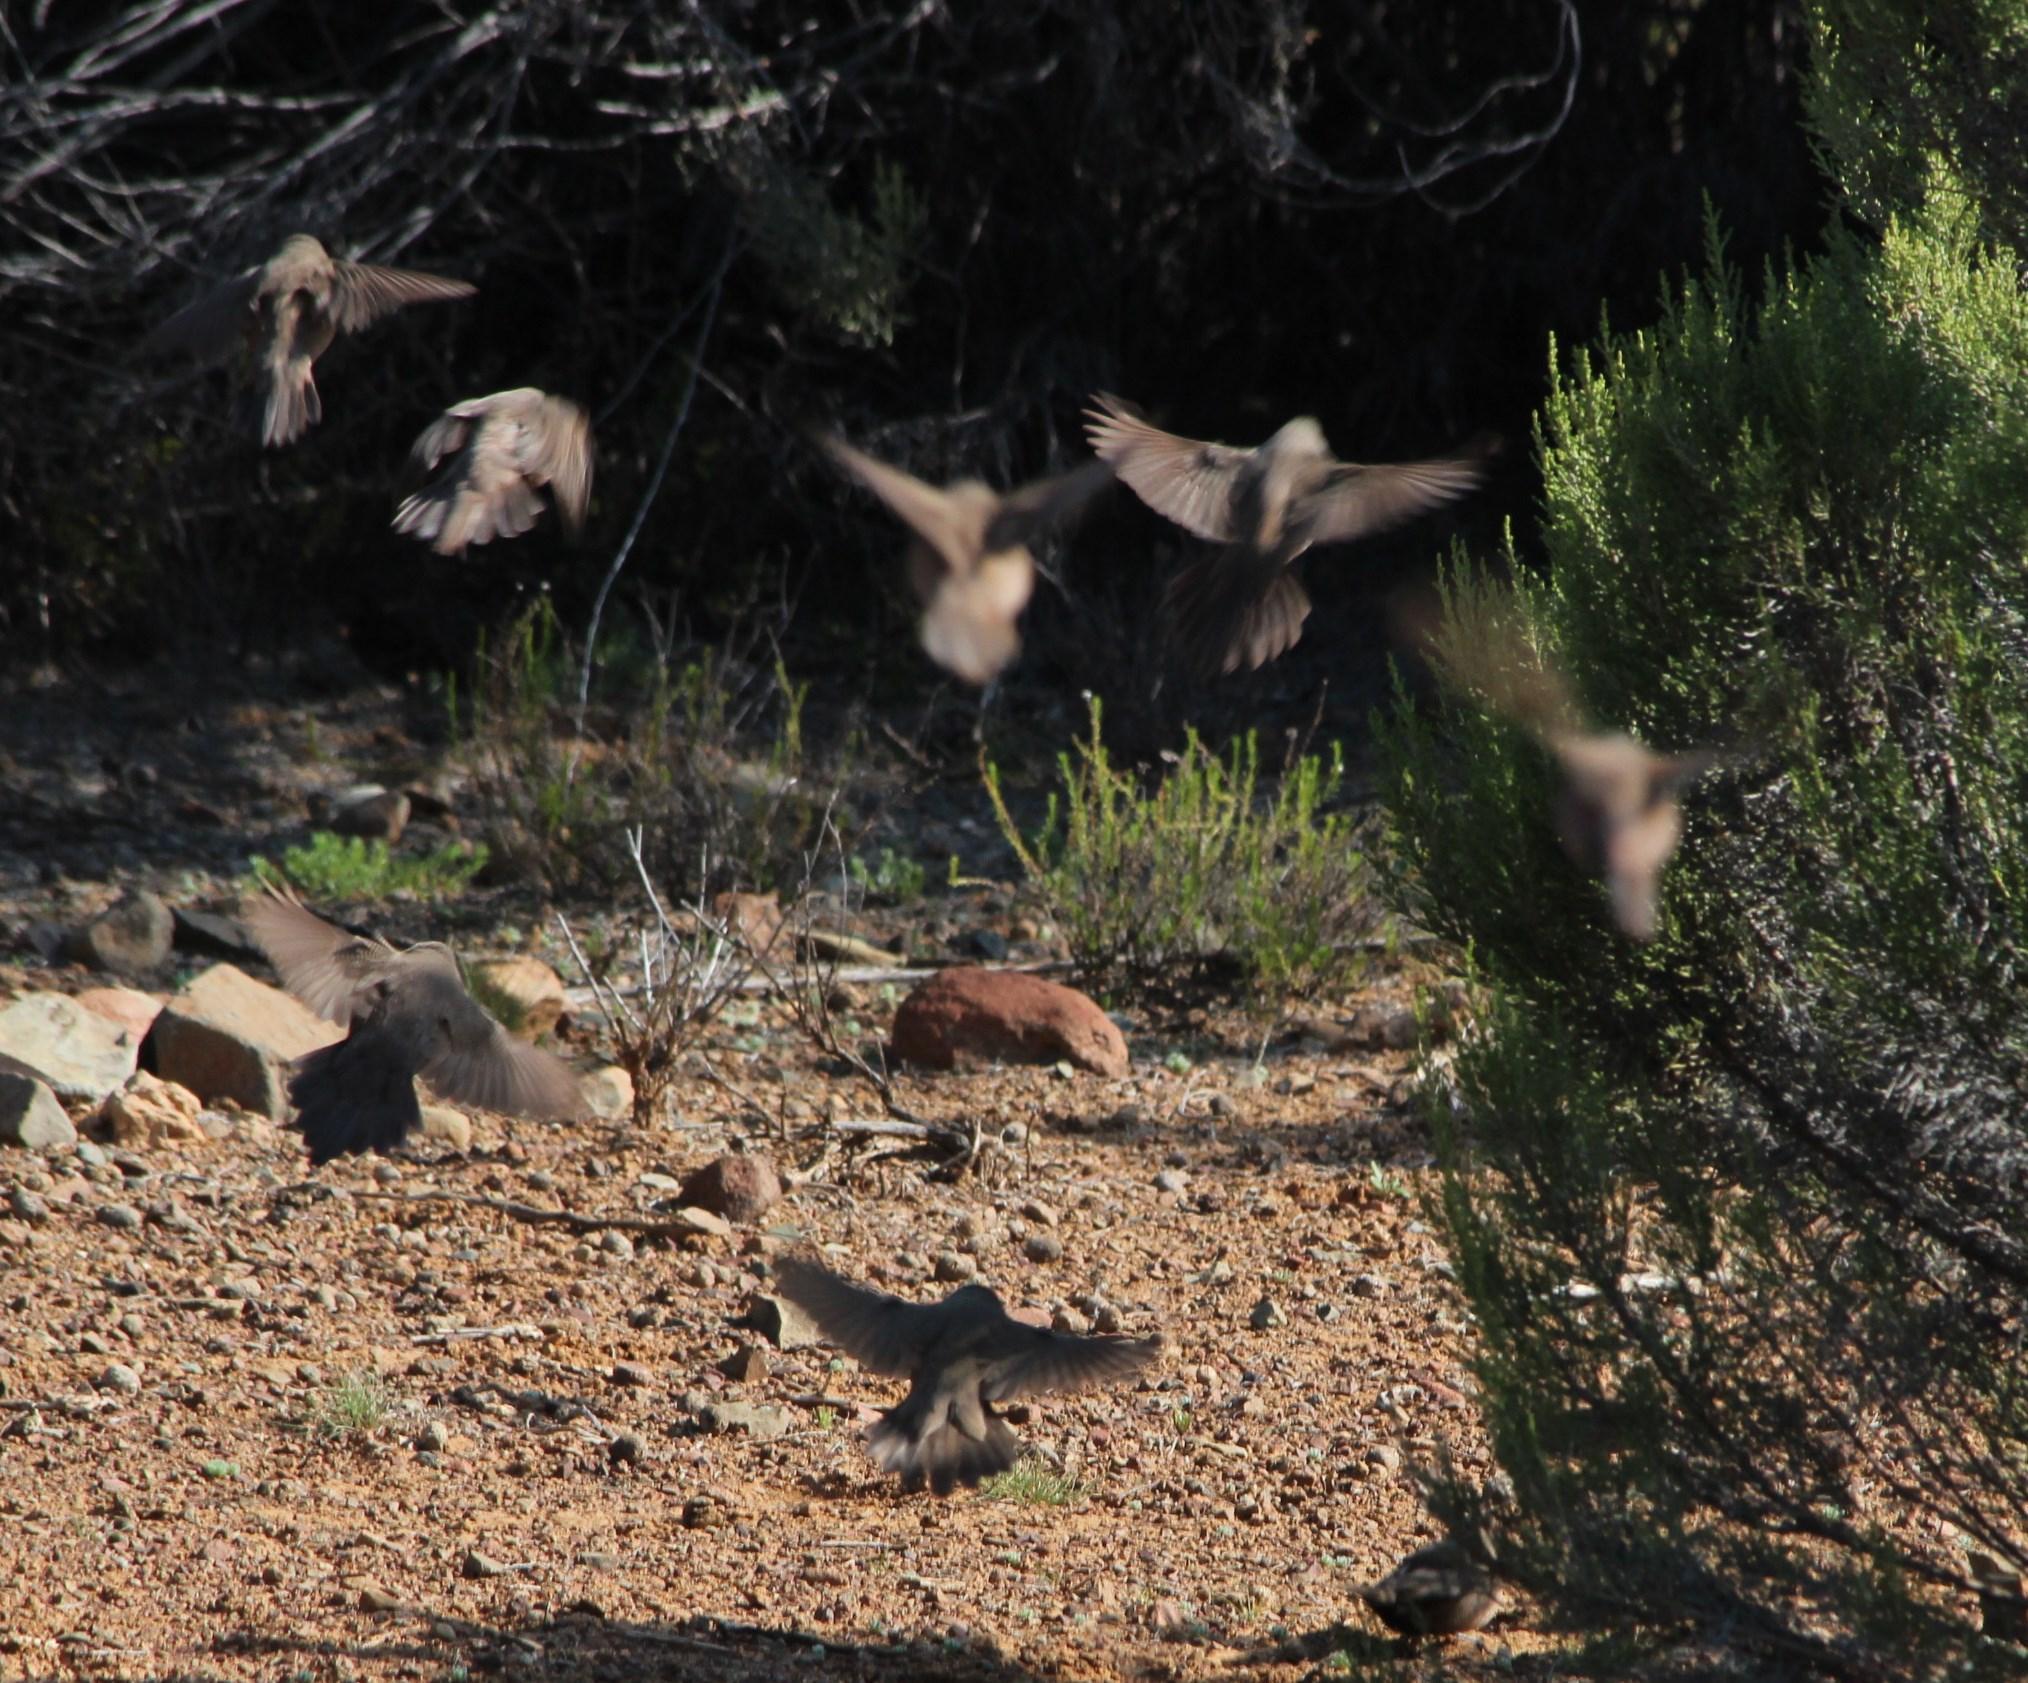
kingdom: Animalia
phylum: Chordata
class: Aves
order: Passeriformes
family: Estrildidae
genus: Estrilda
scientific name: Estrilda astrild
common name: Common waxbill
